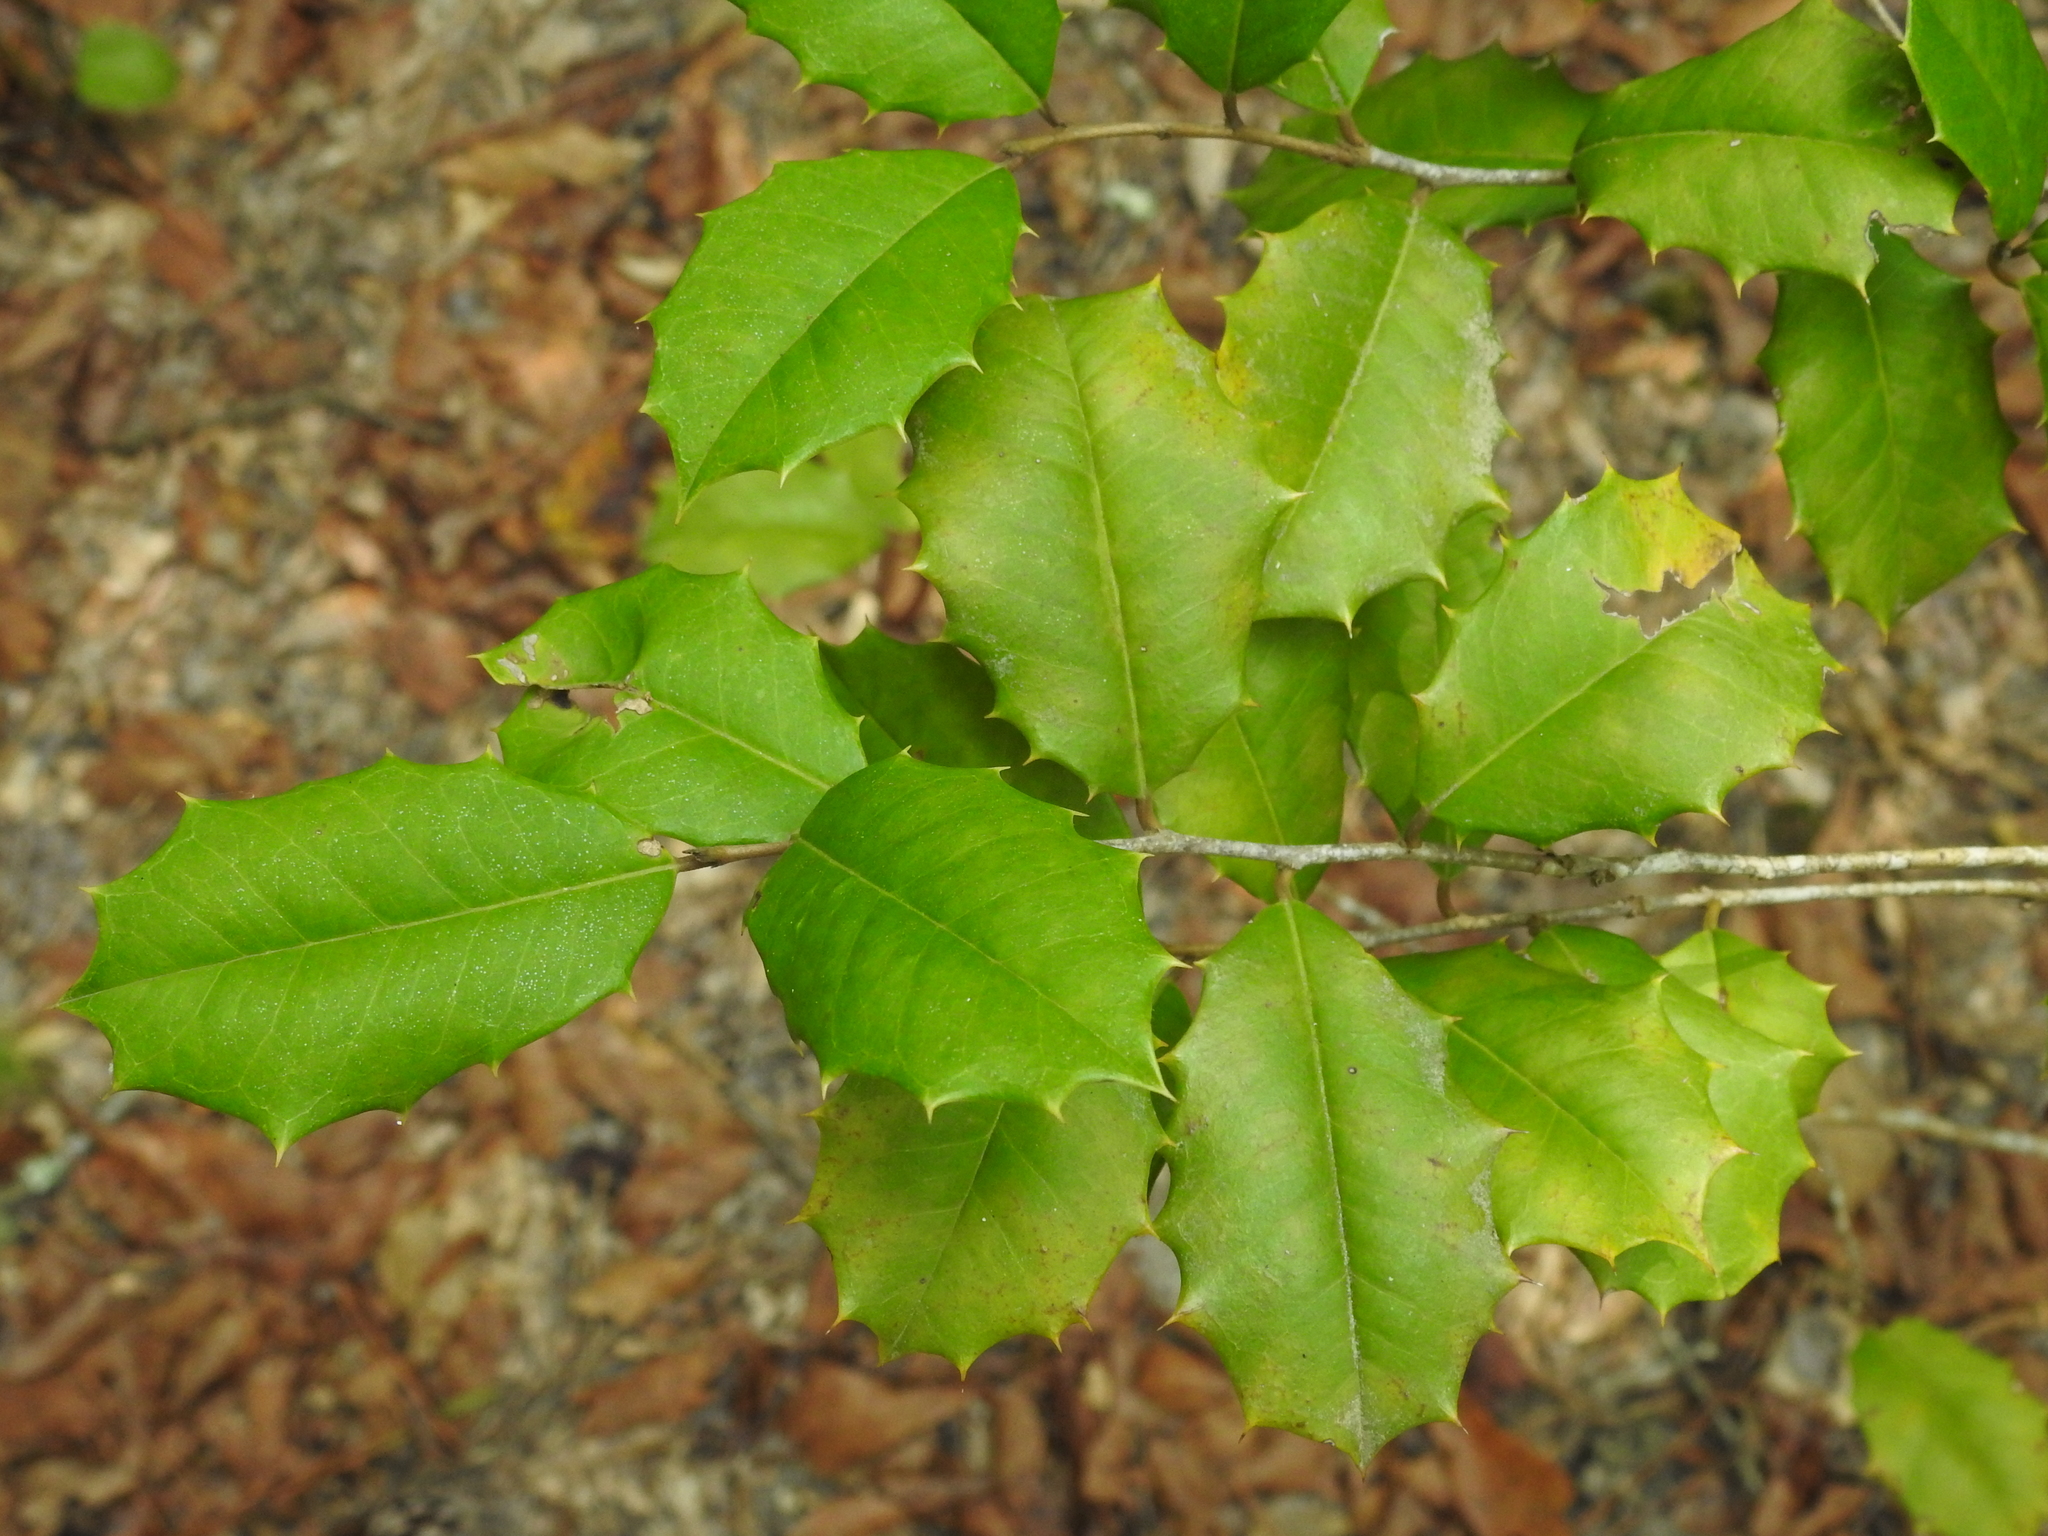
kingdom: Plantae
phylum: Tracheophyta
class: Magnoliopsida
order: Aquifoliales
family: Aquifoliaceae
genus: Ilex
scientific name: Ilex opaca
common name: American holly
